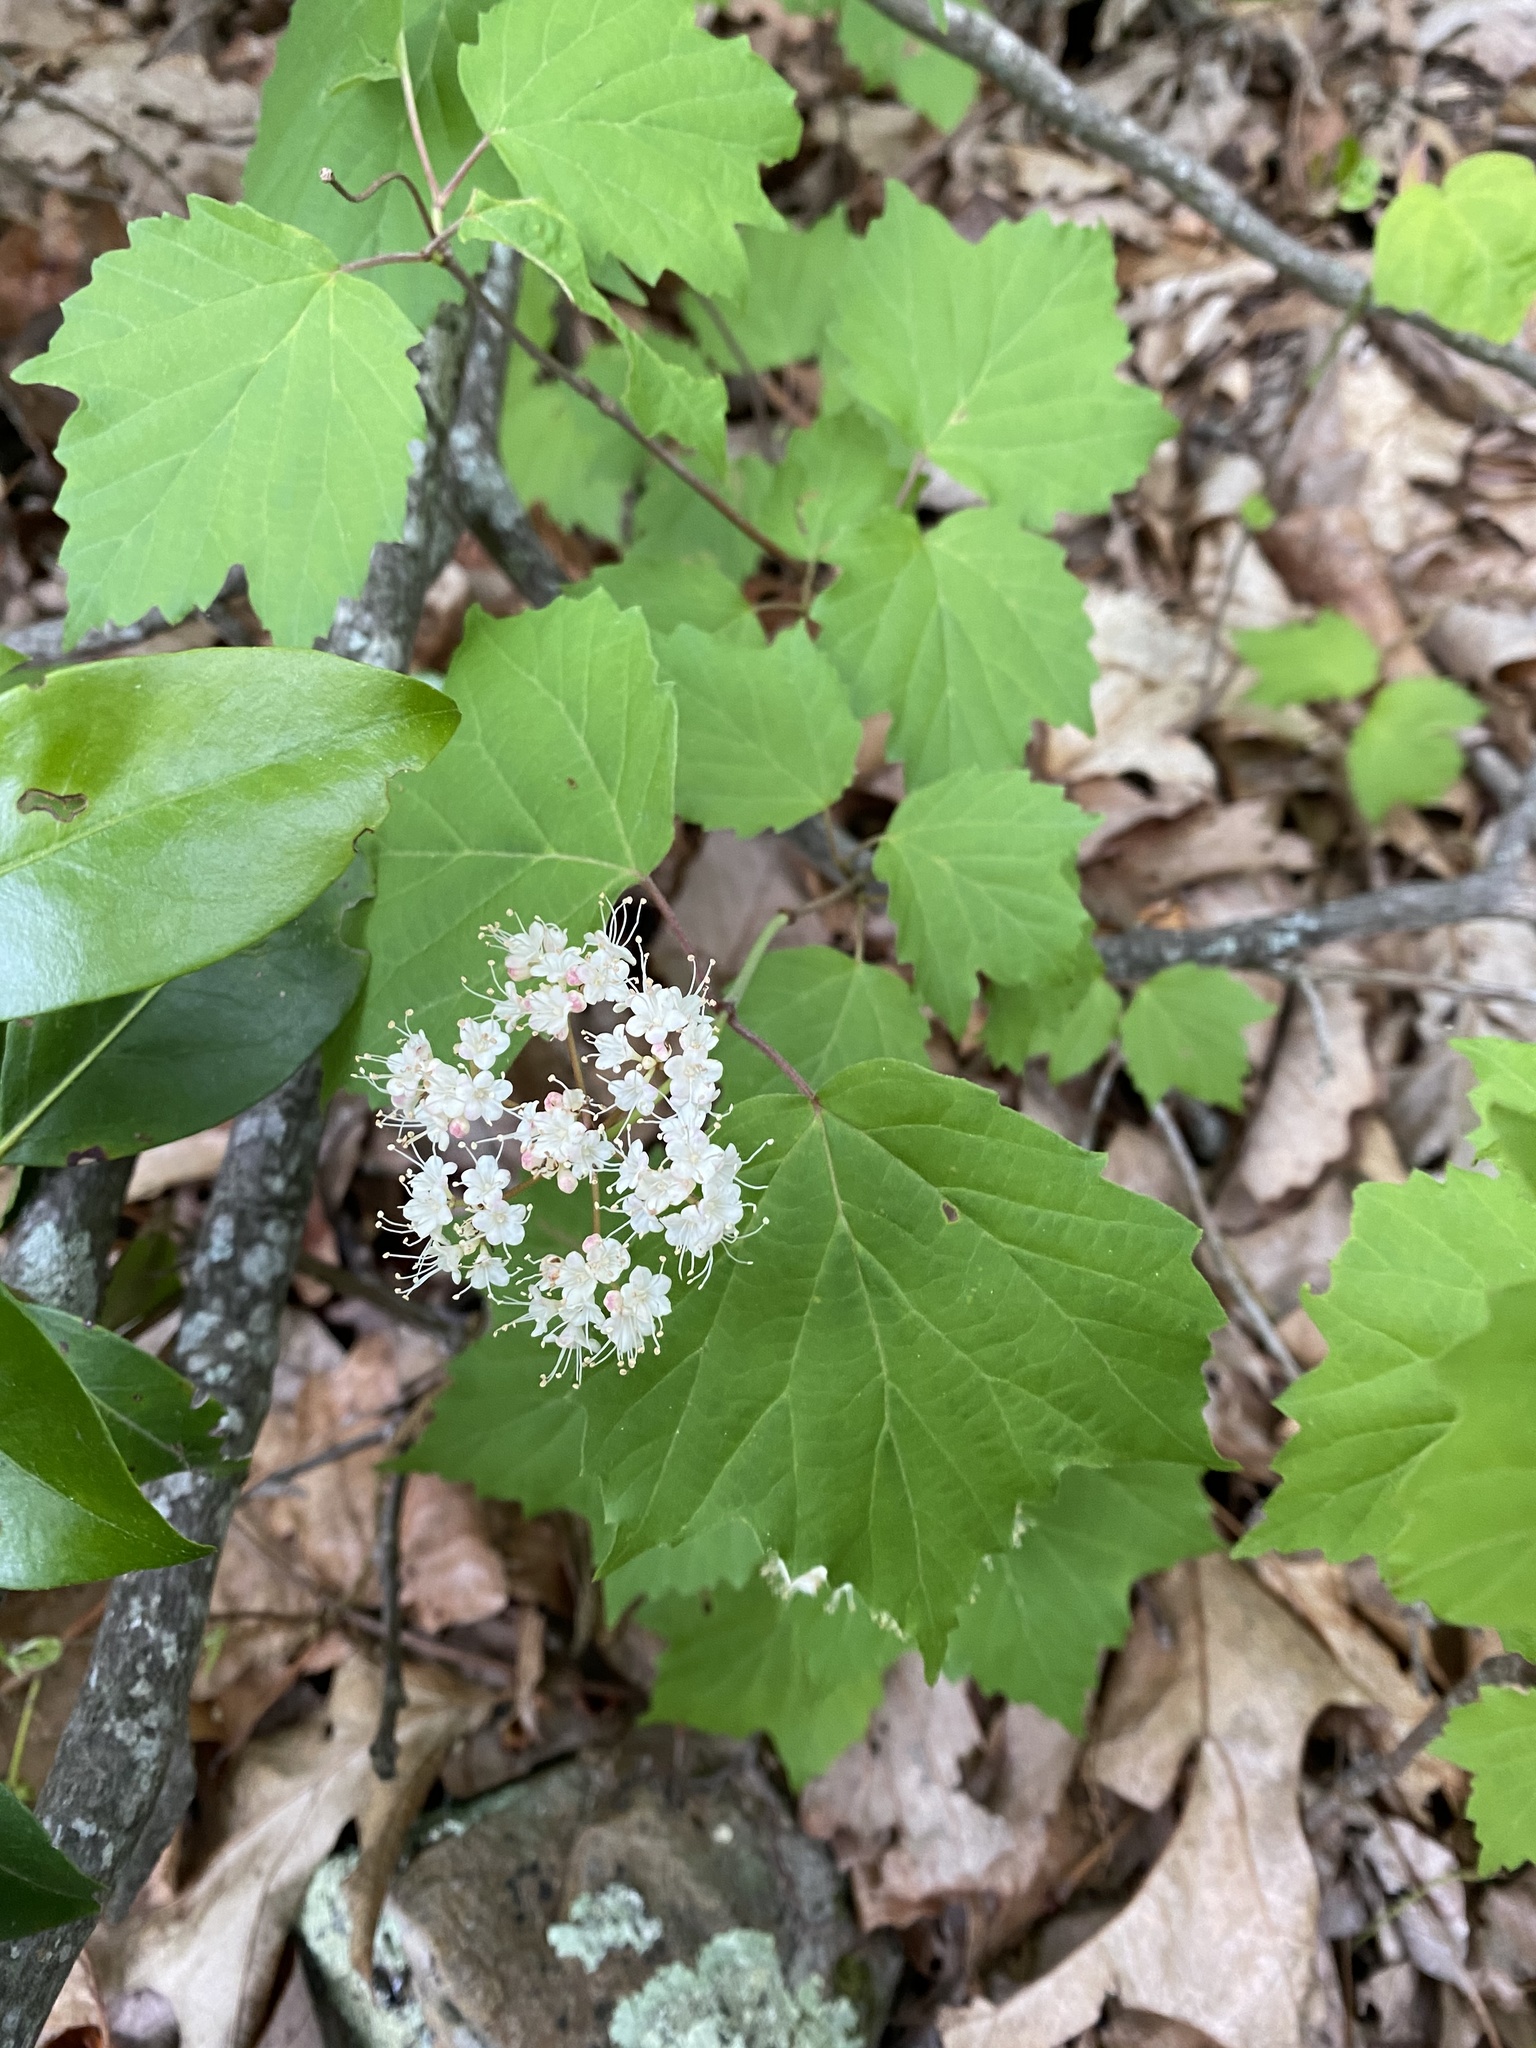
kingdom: Plantae
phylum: Tracheophyta
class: Magnoliopsida
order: Dipsacales
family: Viburnaceae
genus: Viburnum
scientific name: Viburnum acerifolium
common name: Dockmackie
